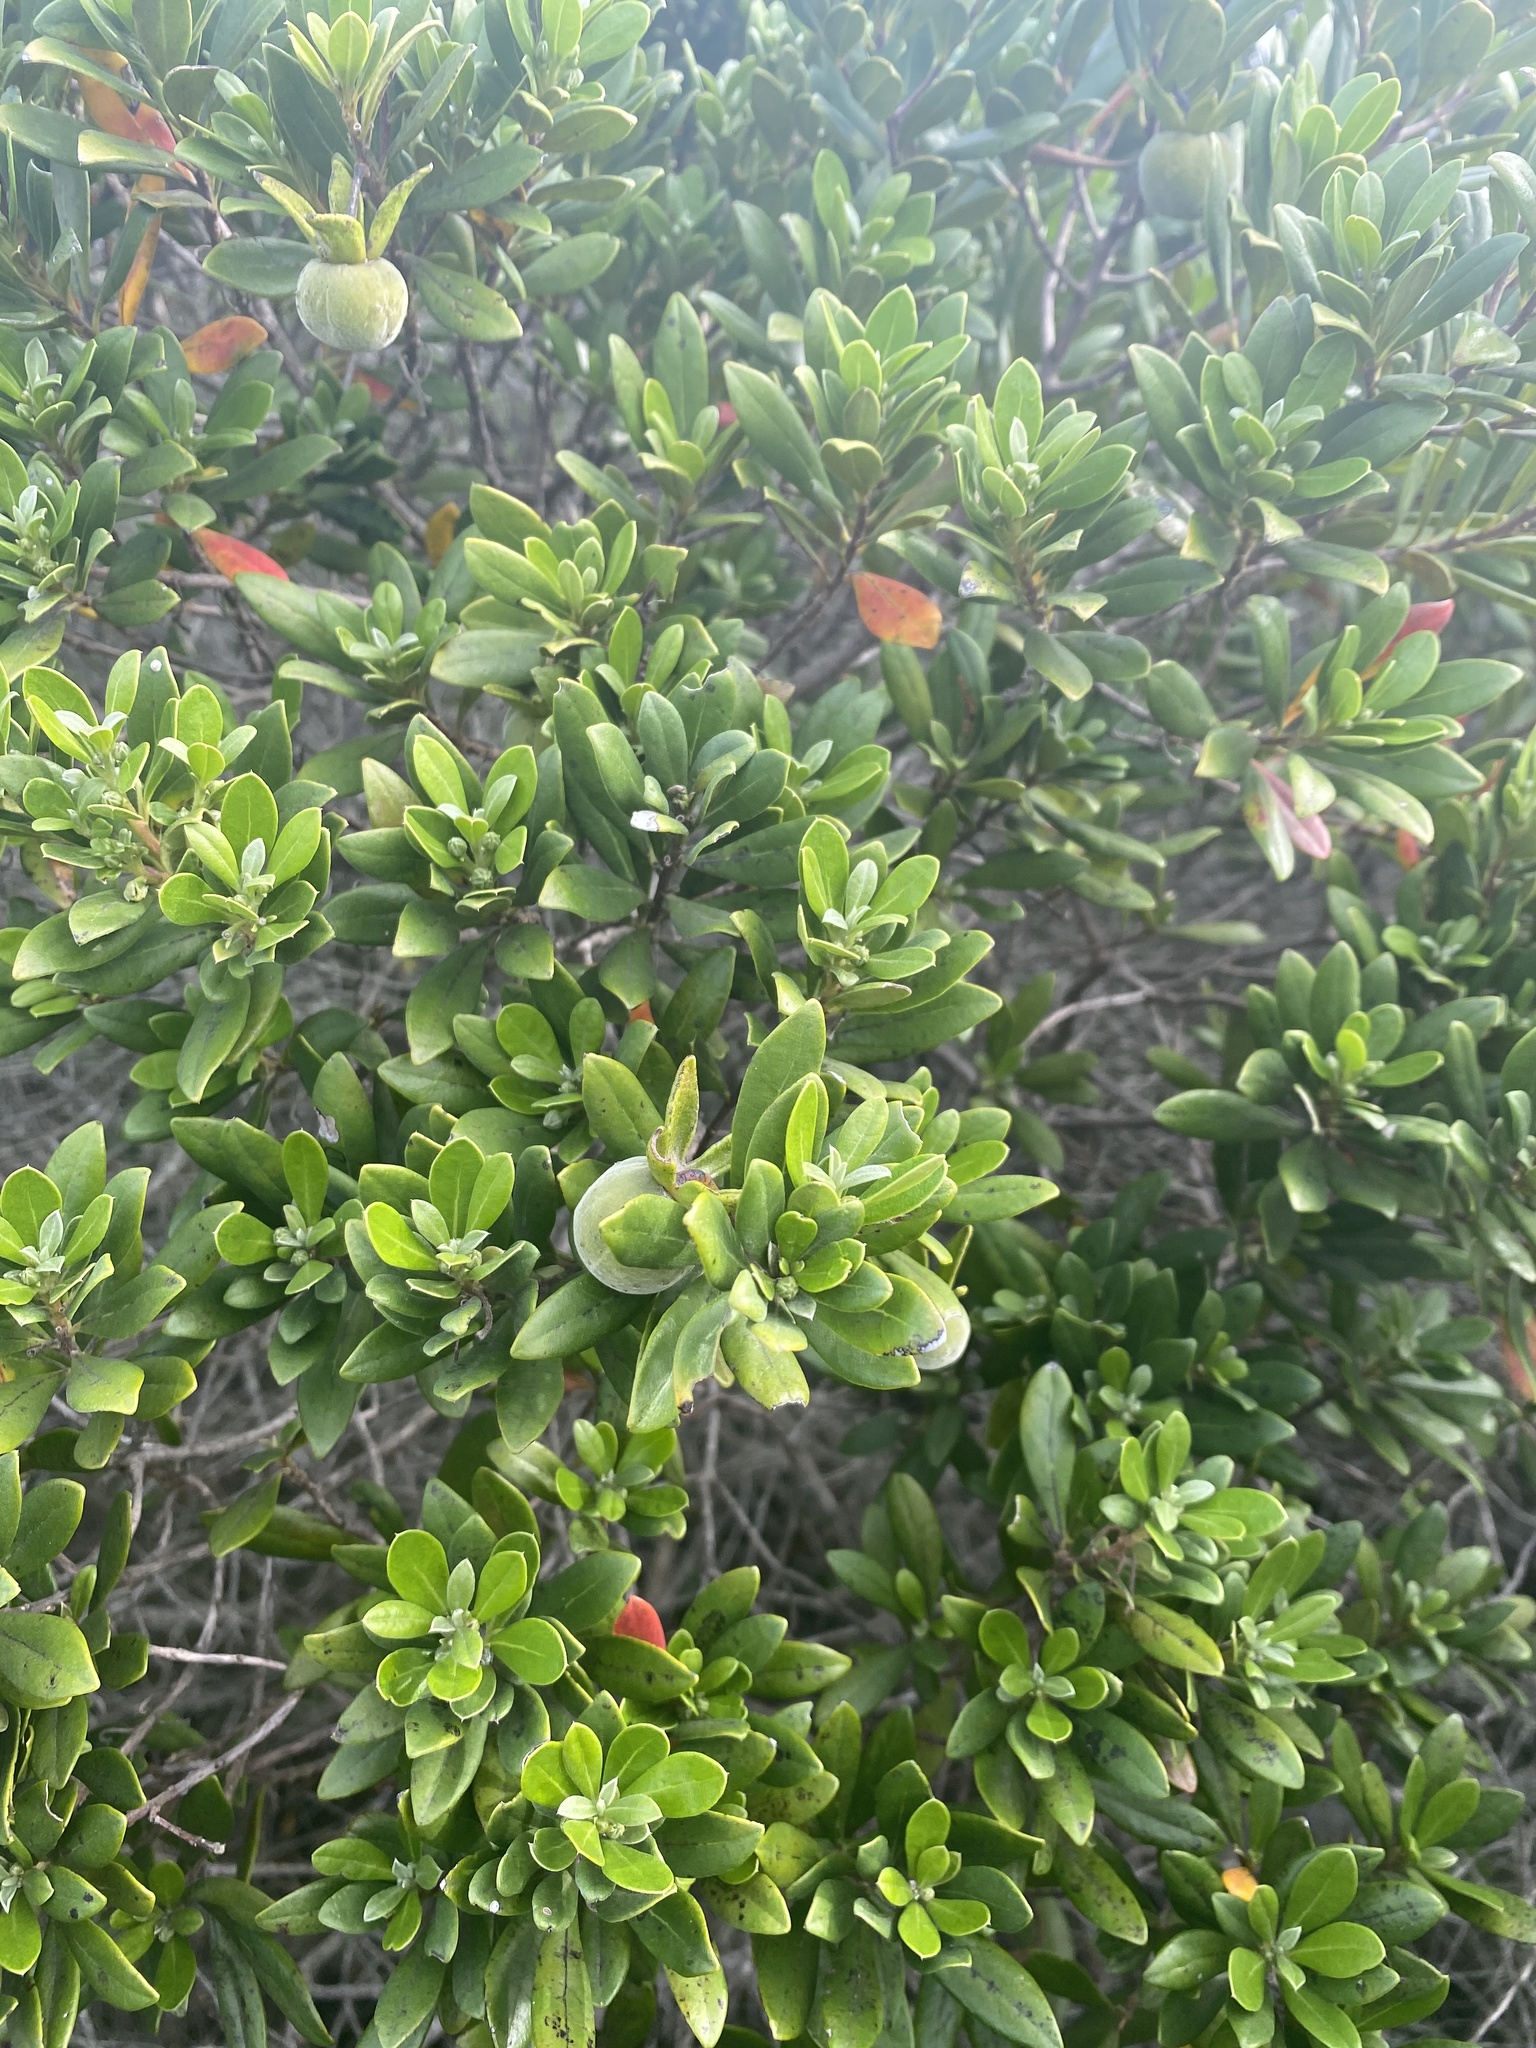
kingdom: Plantae
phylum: Tracheophyta
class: Magnoliopsida
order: Ericales
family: Ebenaceae
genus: Diospyros
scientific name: Diospyros dichrophylla
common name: Common star-apple
